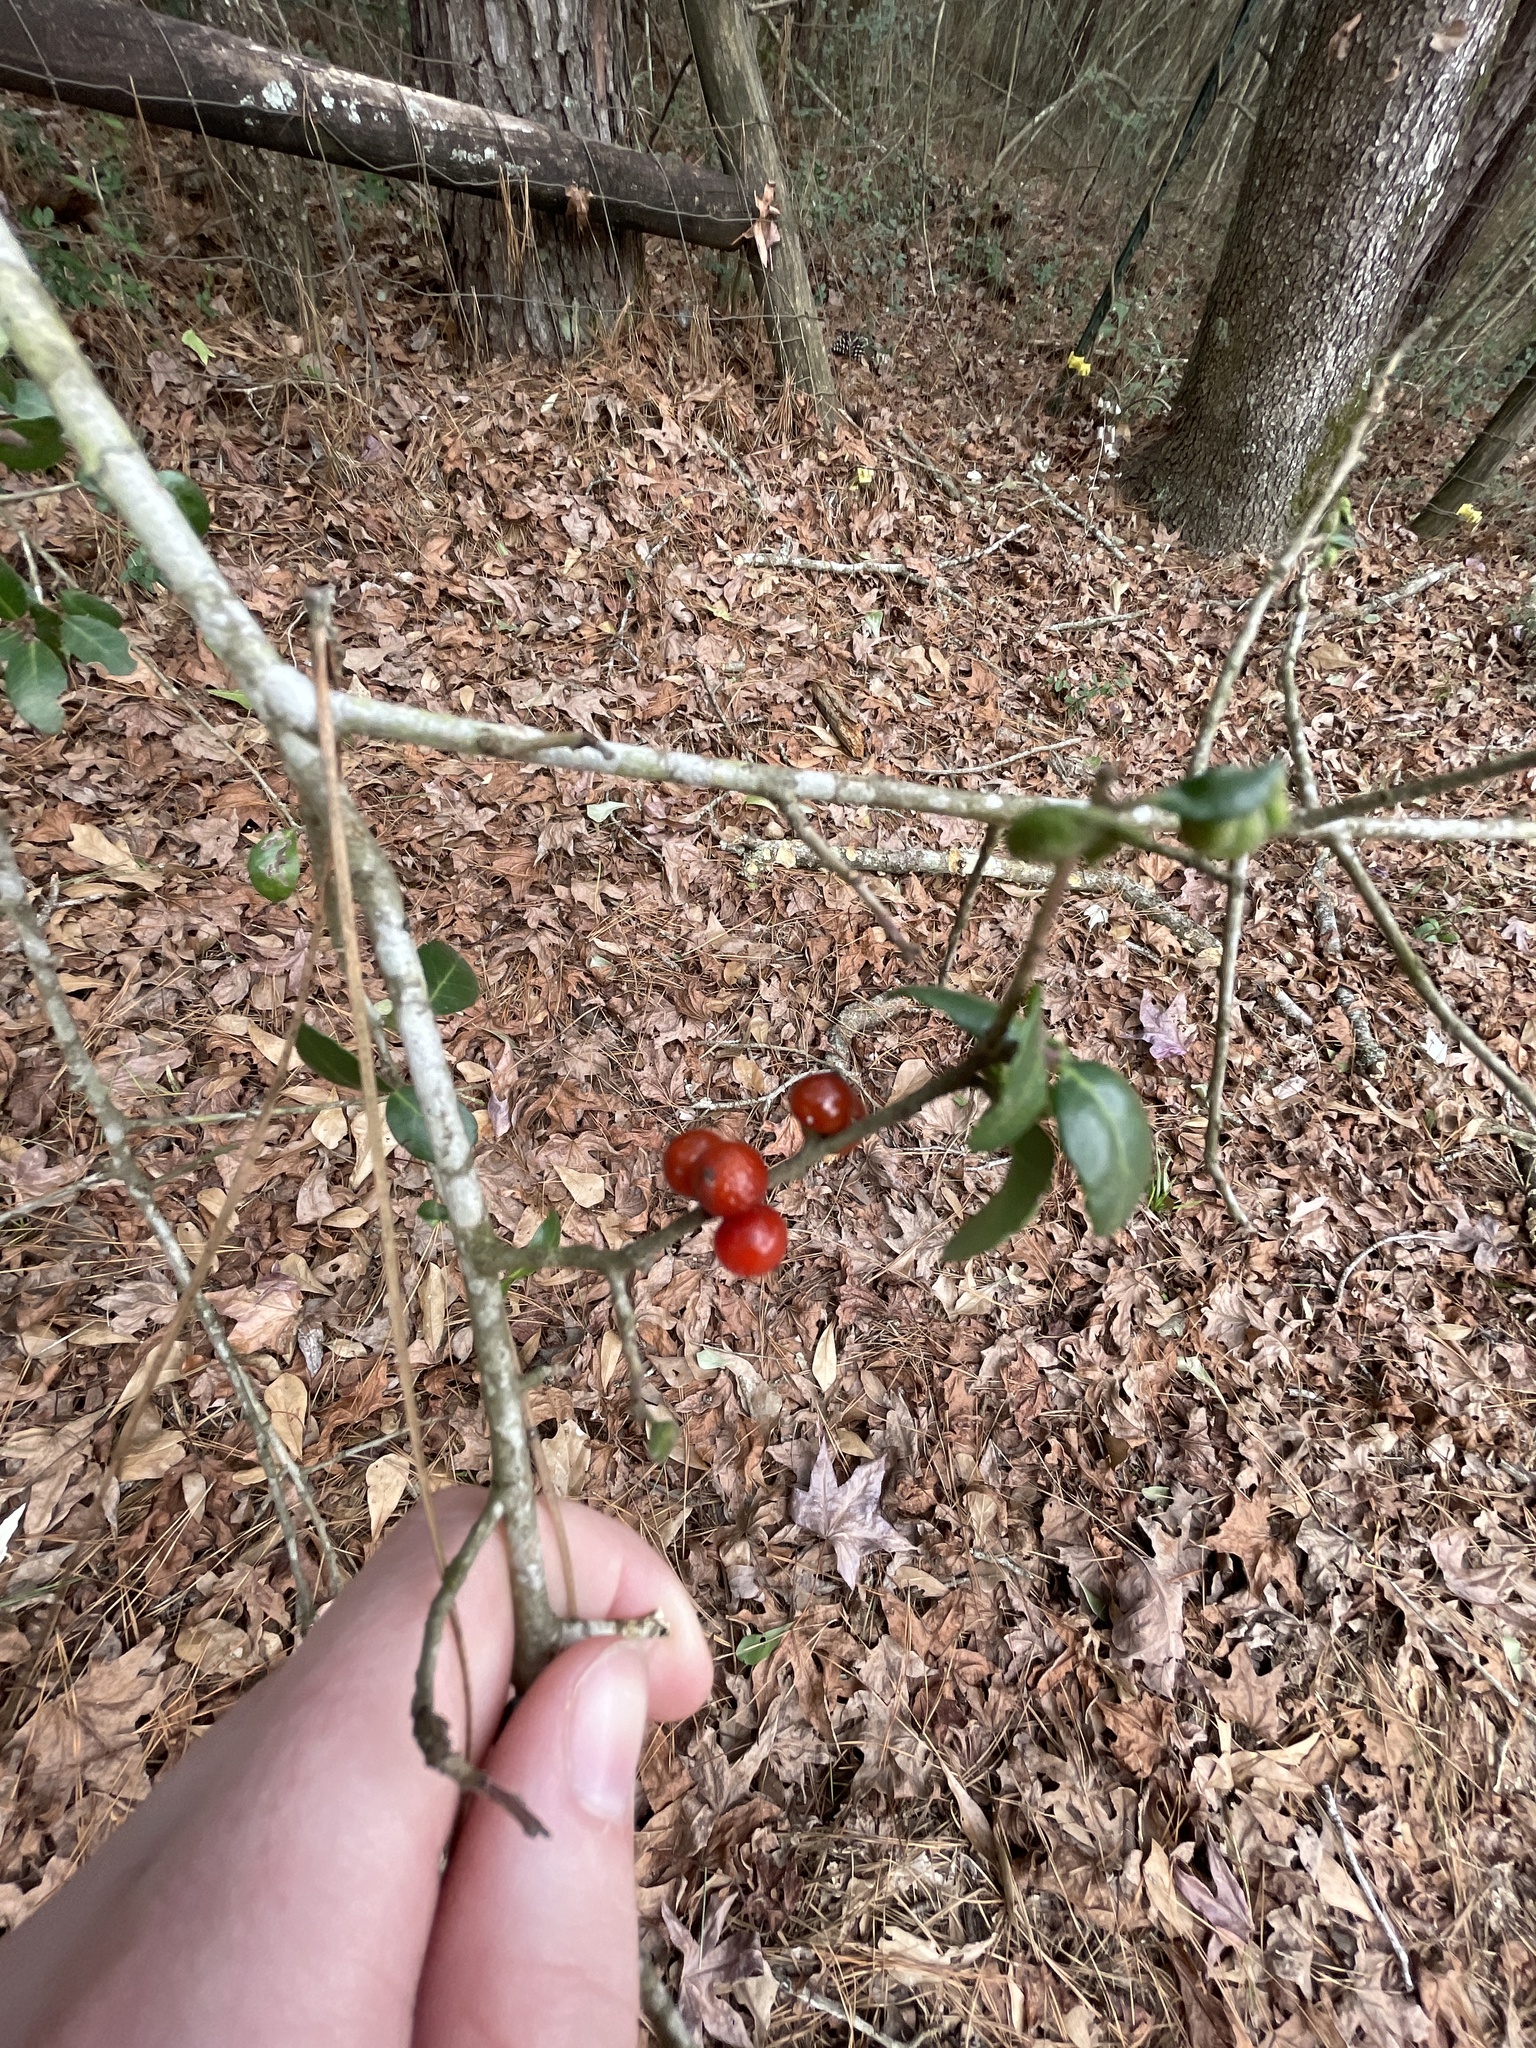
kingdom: Plantae
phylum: Tracheophyta
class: Magnoliopsida
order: Aquifoliales
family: Aquifoliaceae
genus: Ilex
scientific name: Ilex vomitoria
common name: Yaupon holly
